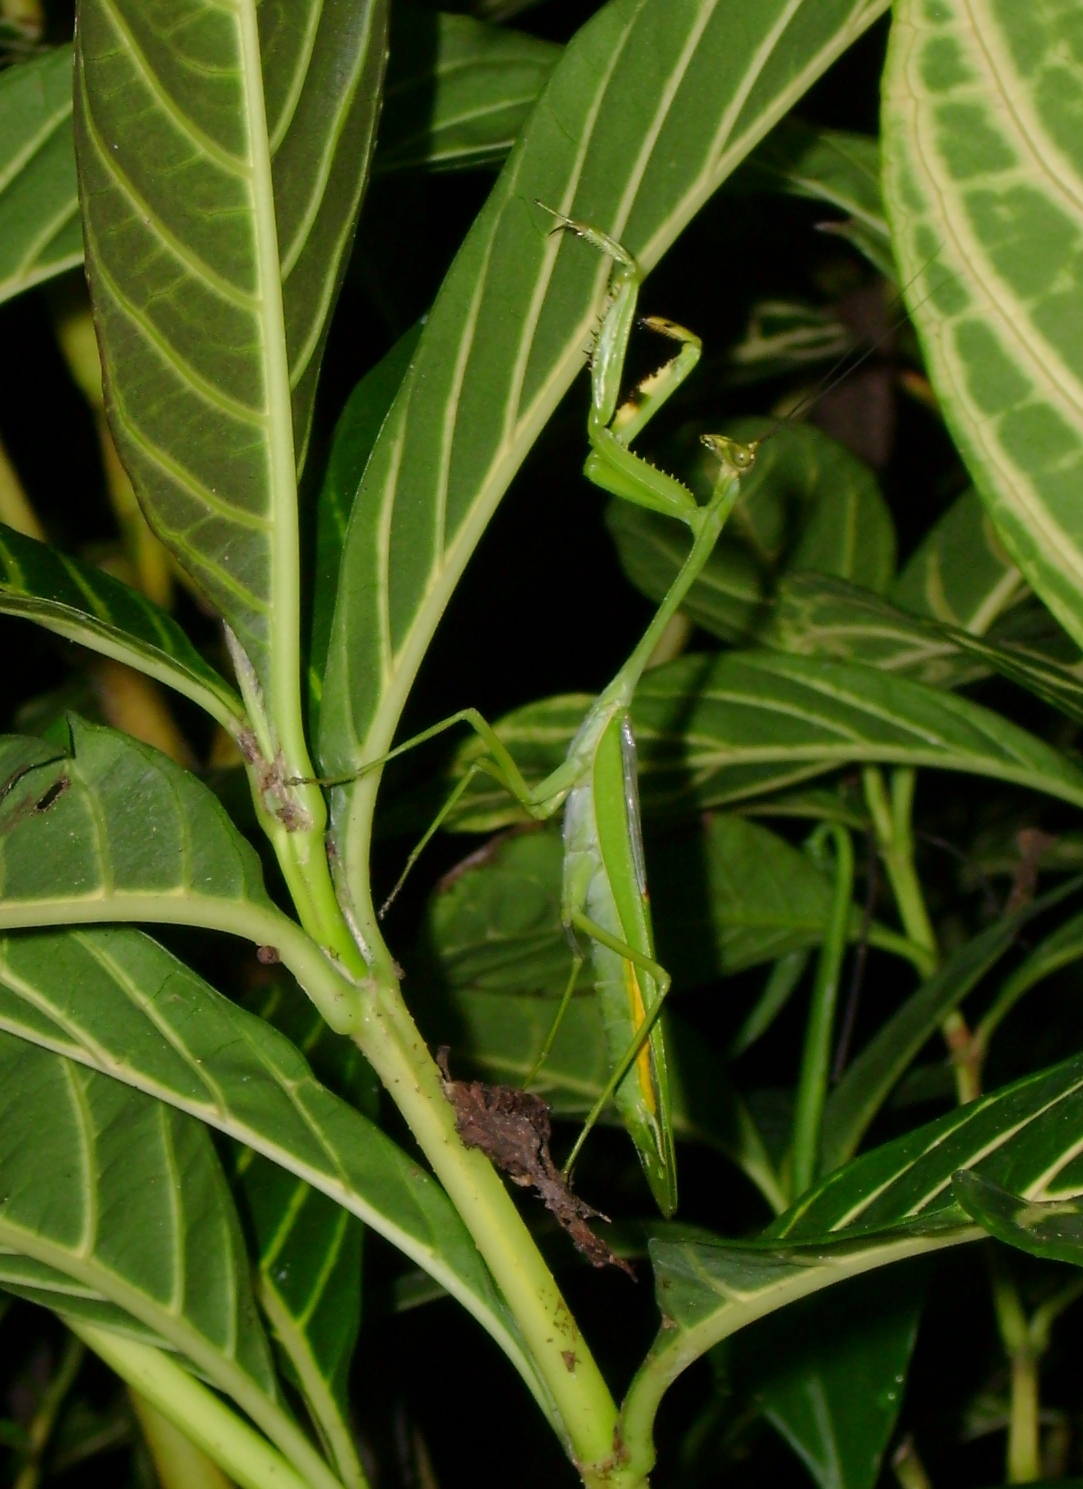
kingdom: Animalia
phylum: Arthropoda
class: Insecta
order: Mantodea
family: Mantidae
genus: Stagmatoptera
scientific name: Stagmatoptera septentrionalis
